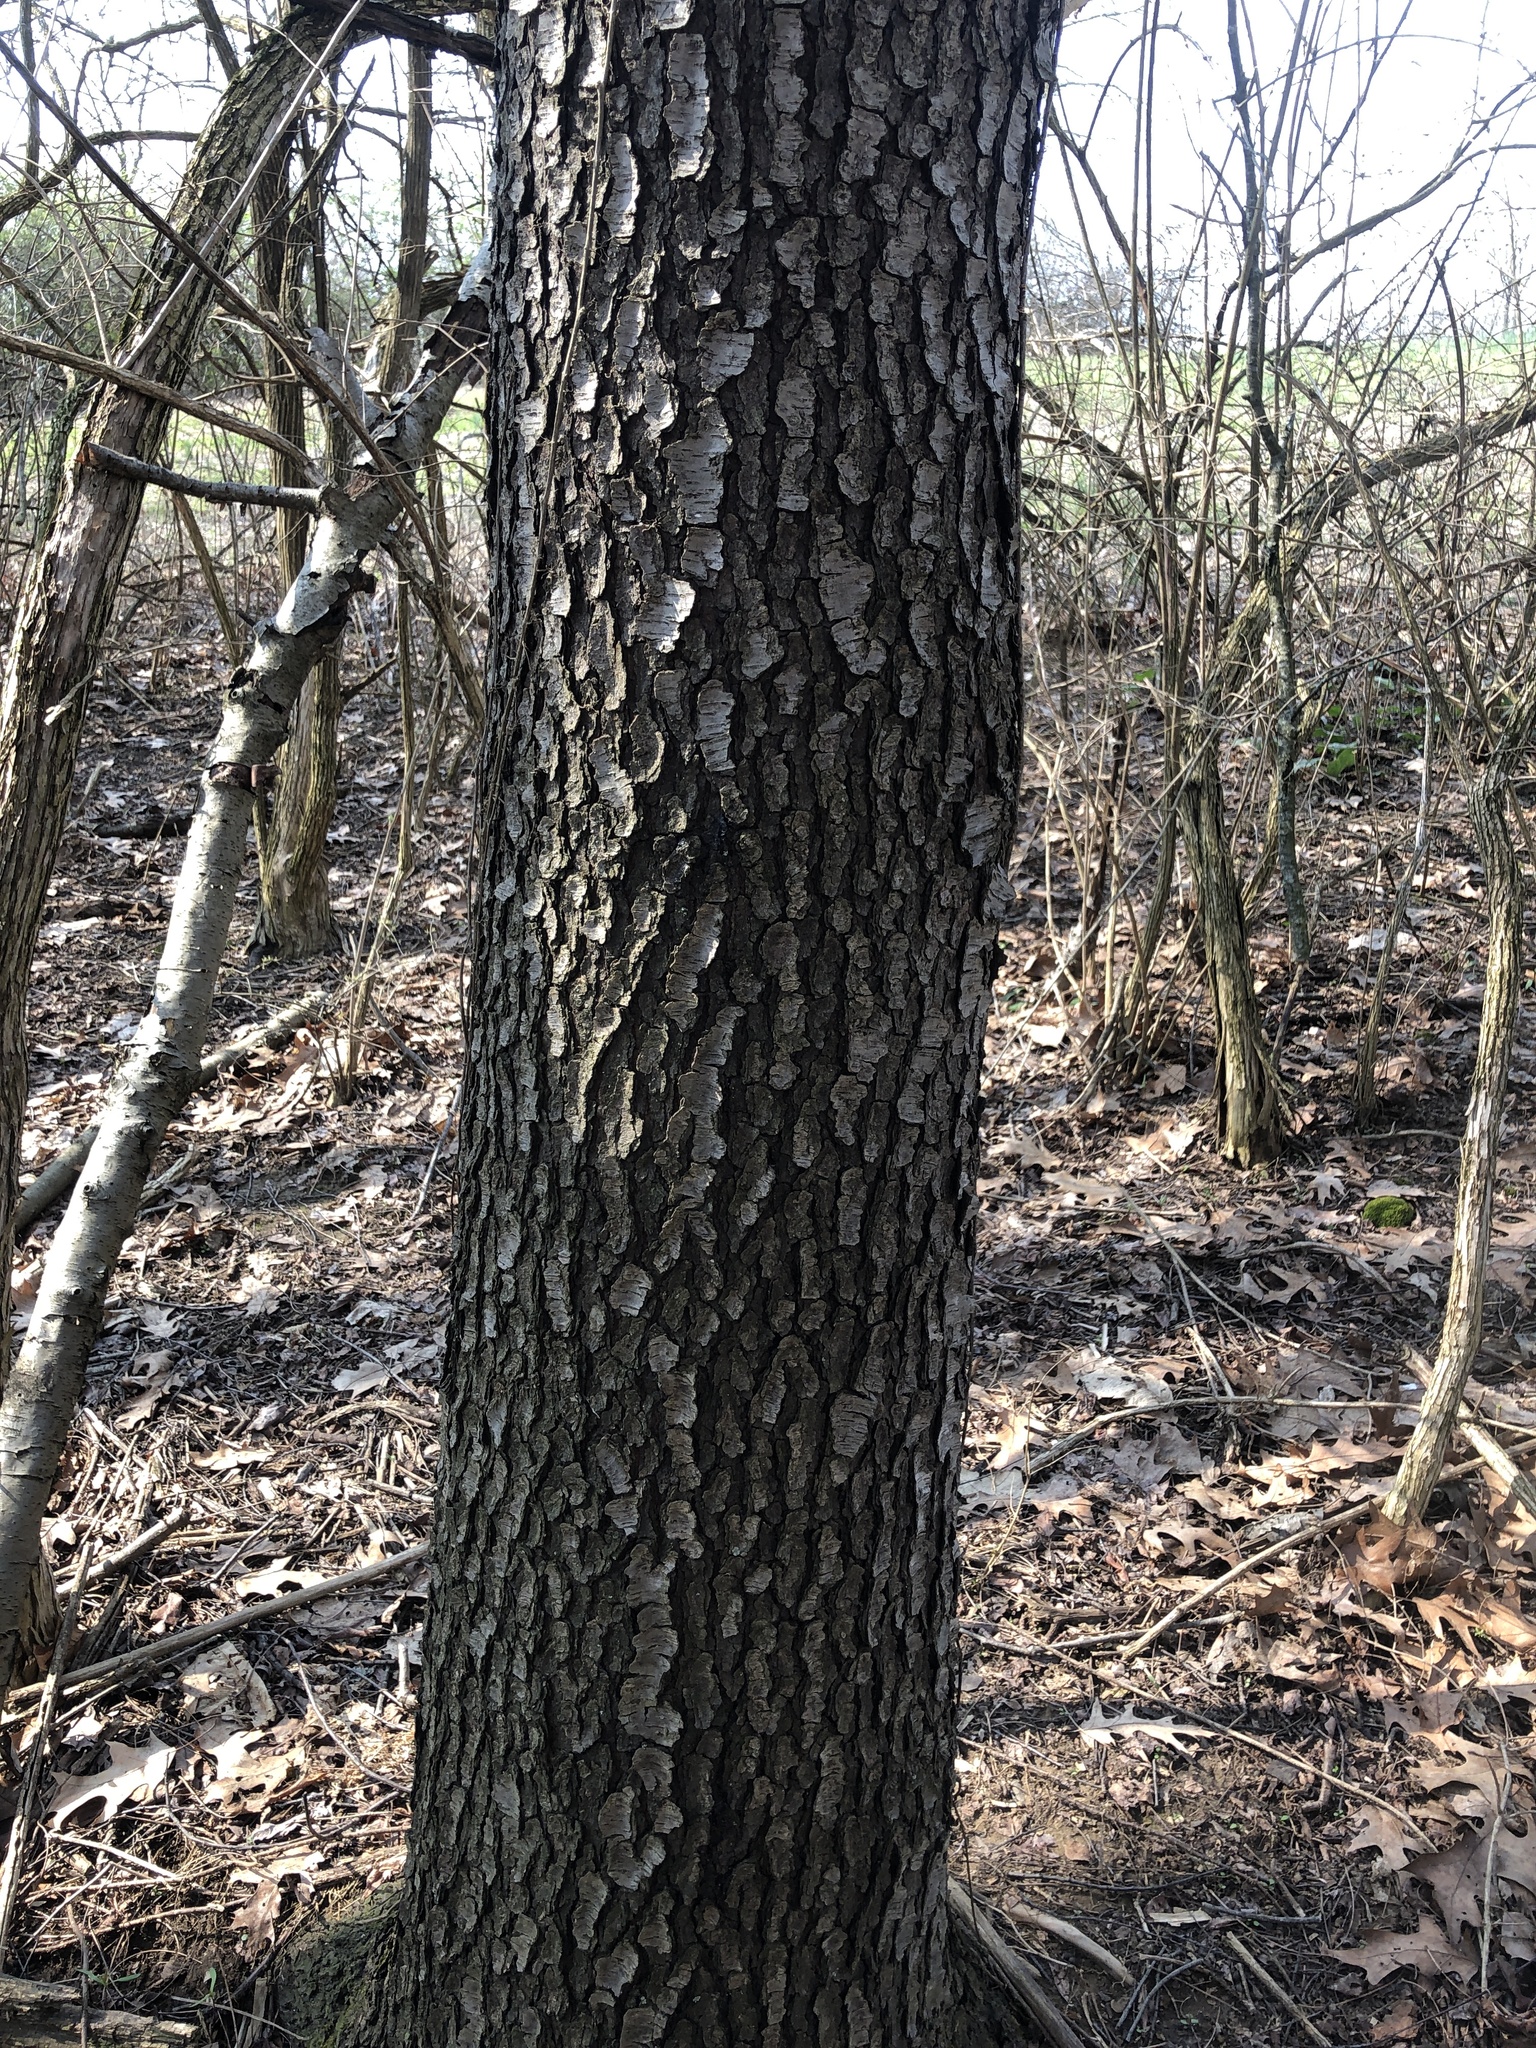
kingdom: Plantae
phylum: Tracheophyta
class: Magnoliopsida
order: Rosales
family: Rosaceae
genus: Prunus
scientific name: Prunus serotina
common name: Black cherry
